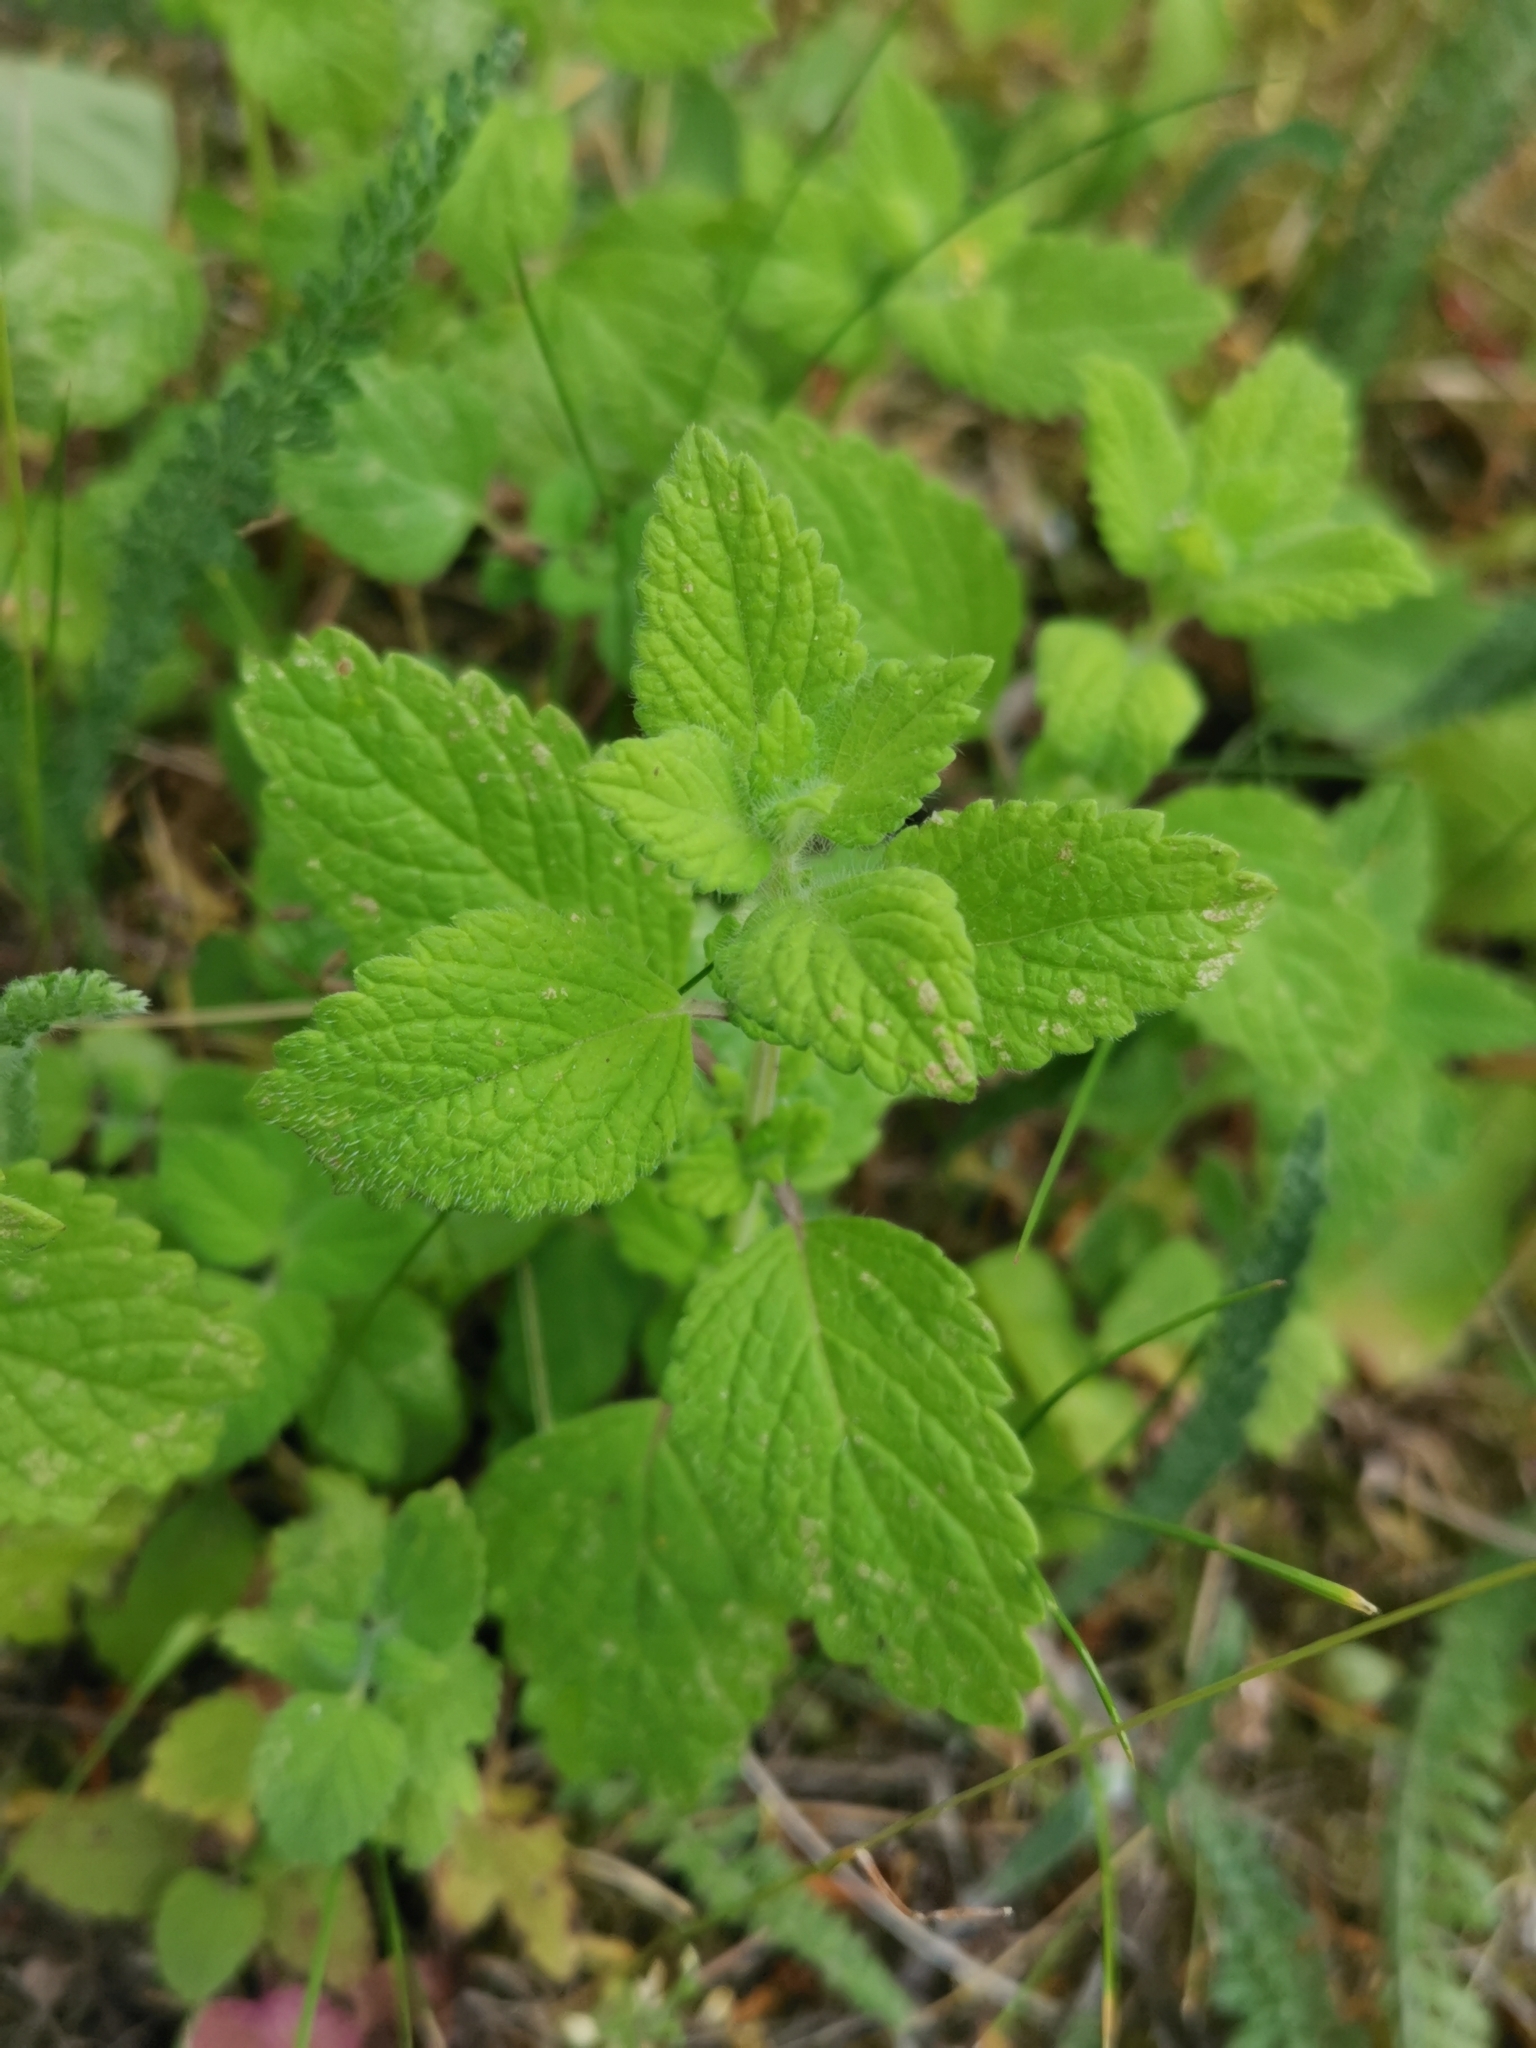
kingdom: Plantae
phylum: Tracheophyta
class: Magnoliopsida
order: Lamiales
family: Lamiaceae
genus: Melissa
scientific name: Melissa officinalis
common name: Balm
